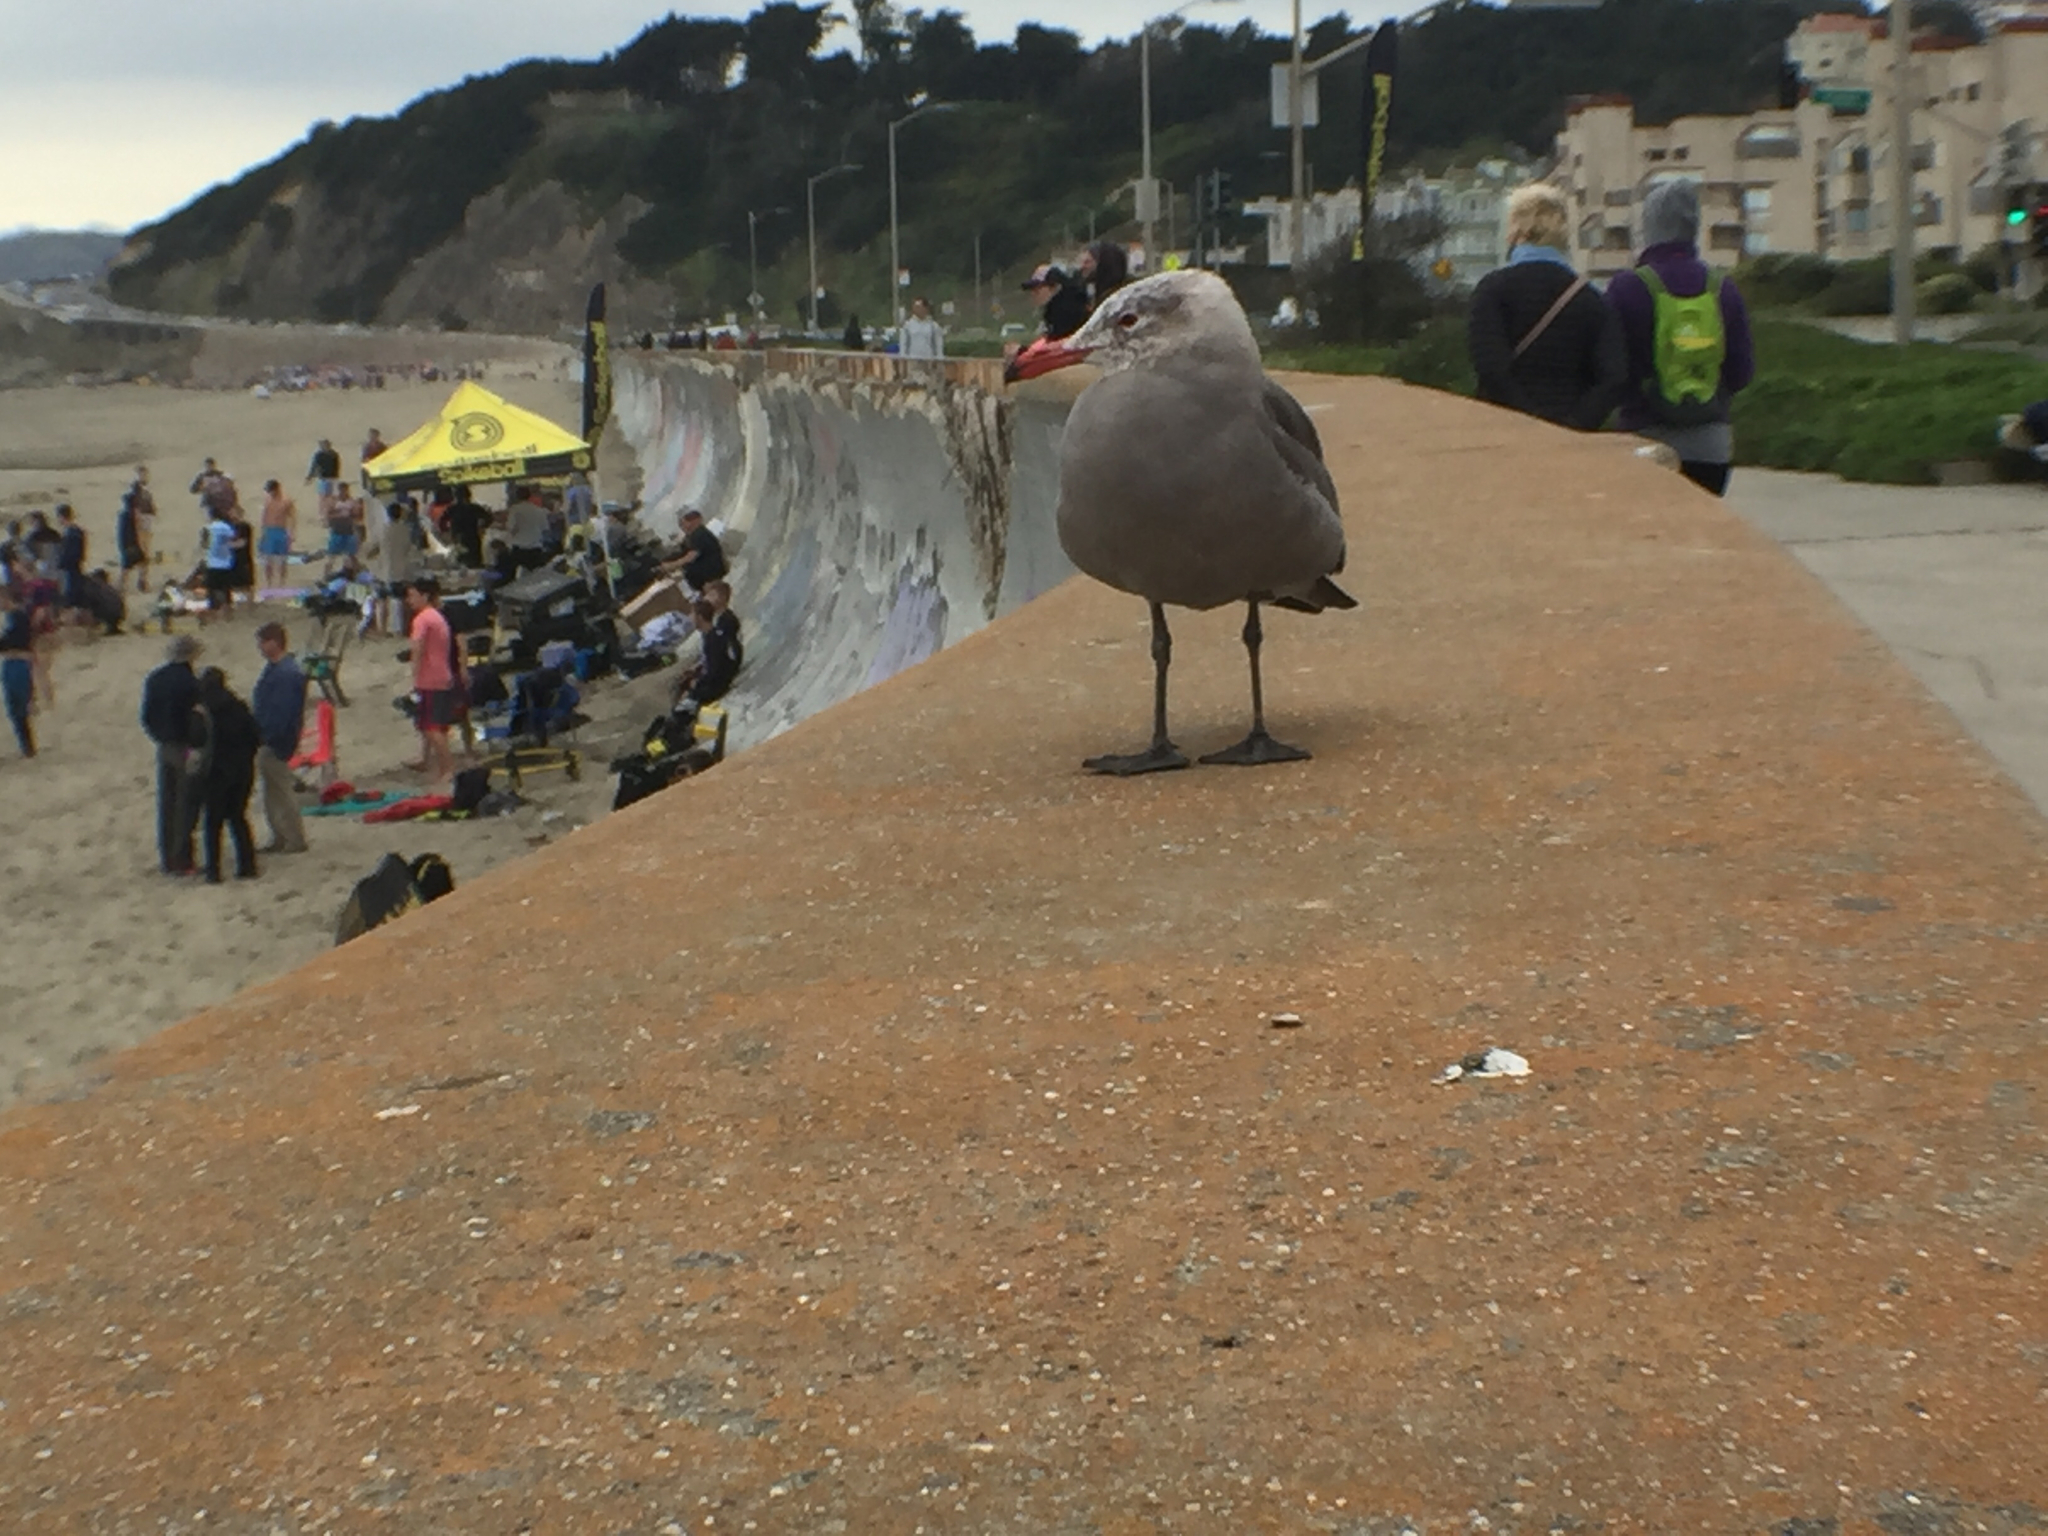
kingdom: Animalia
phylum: Chordata
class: Aves
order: Charadriiformes
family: Laridae
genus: Larus
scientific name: Larus heermanni
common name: Heermann's gull
